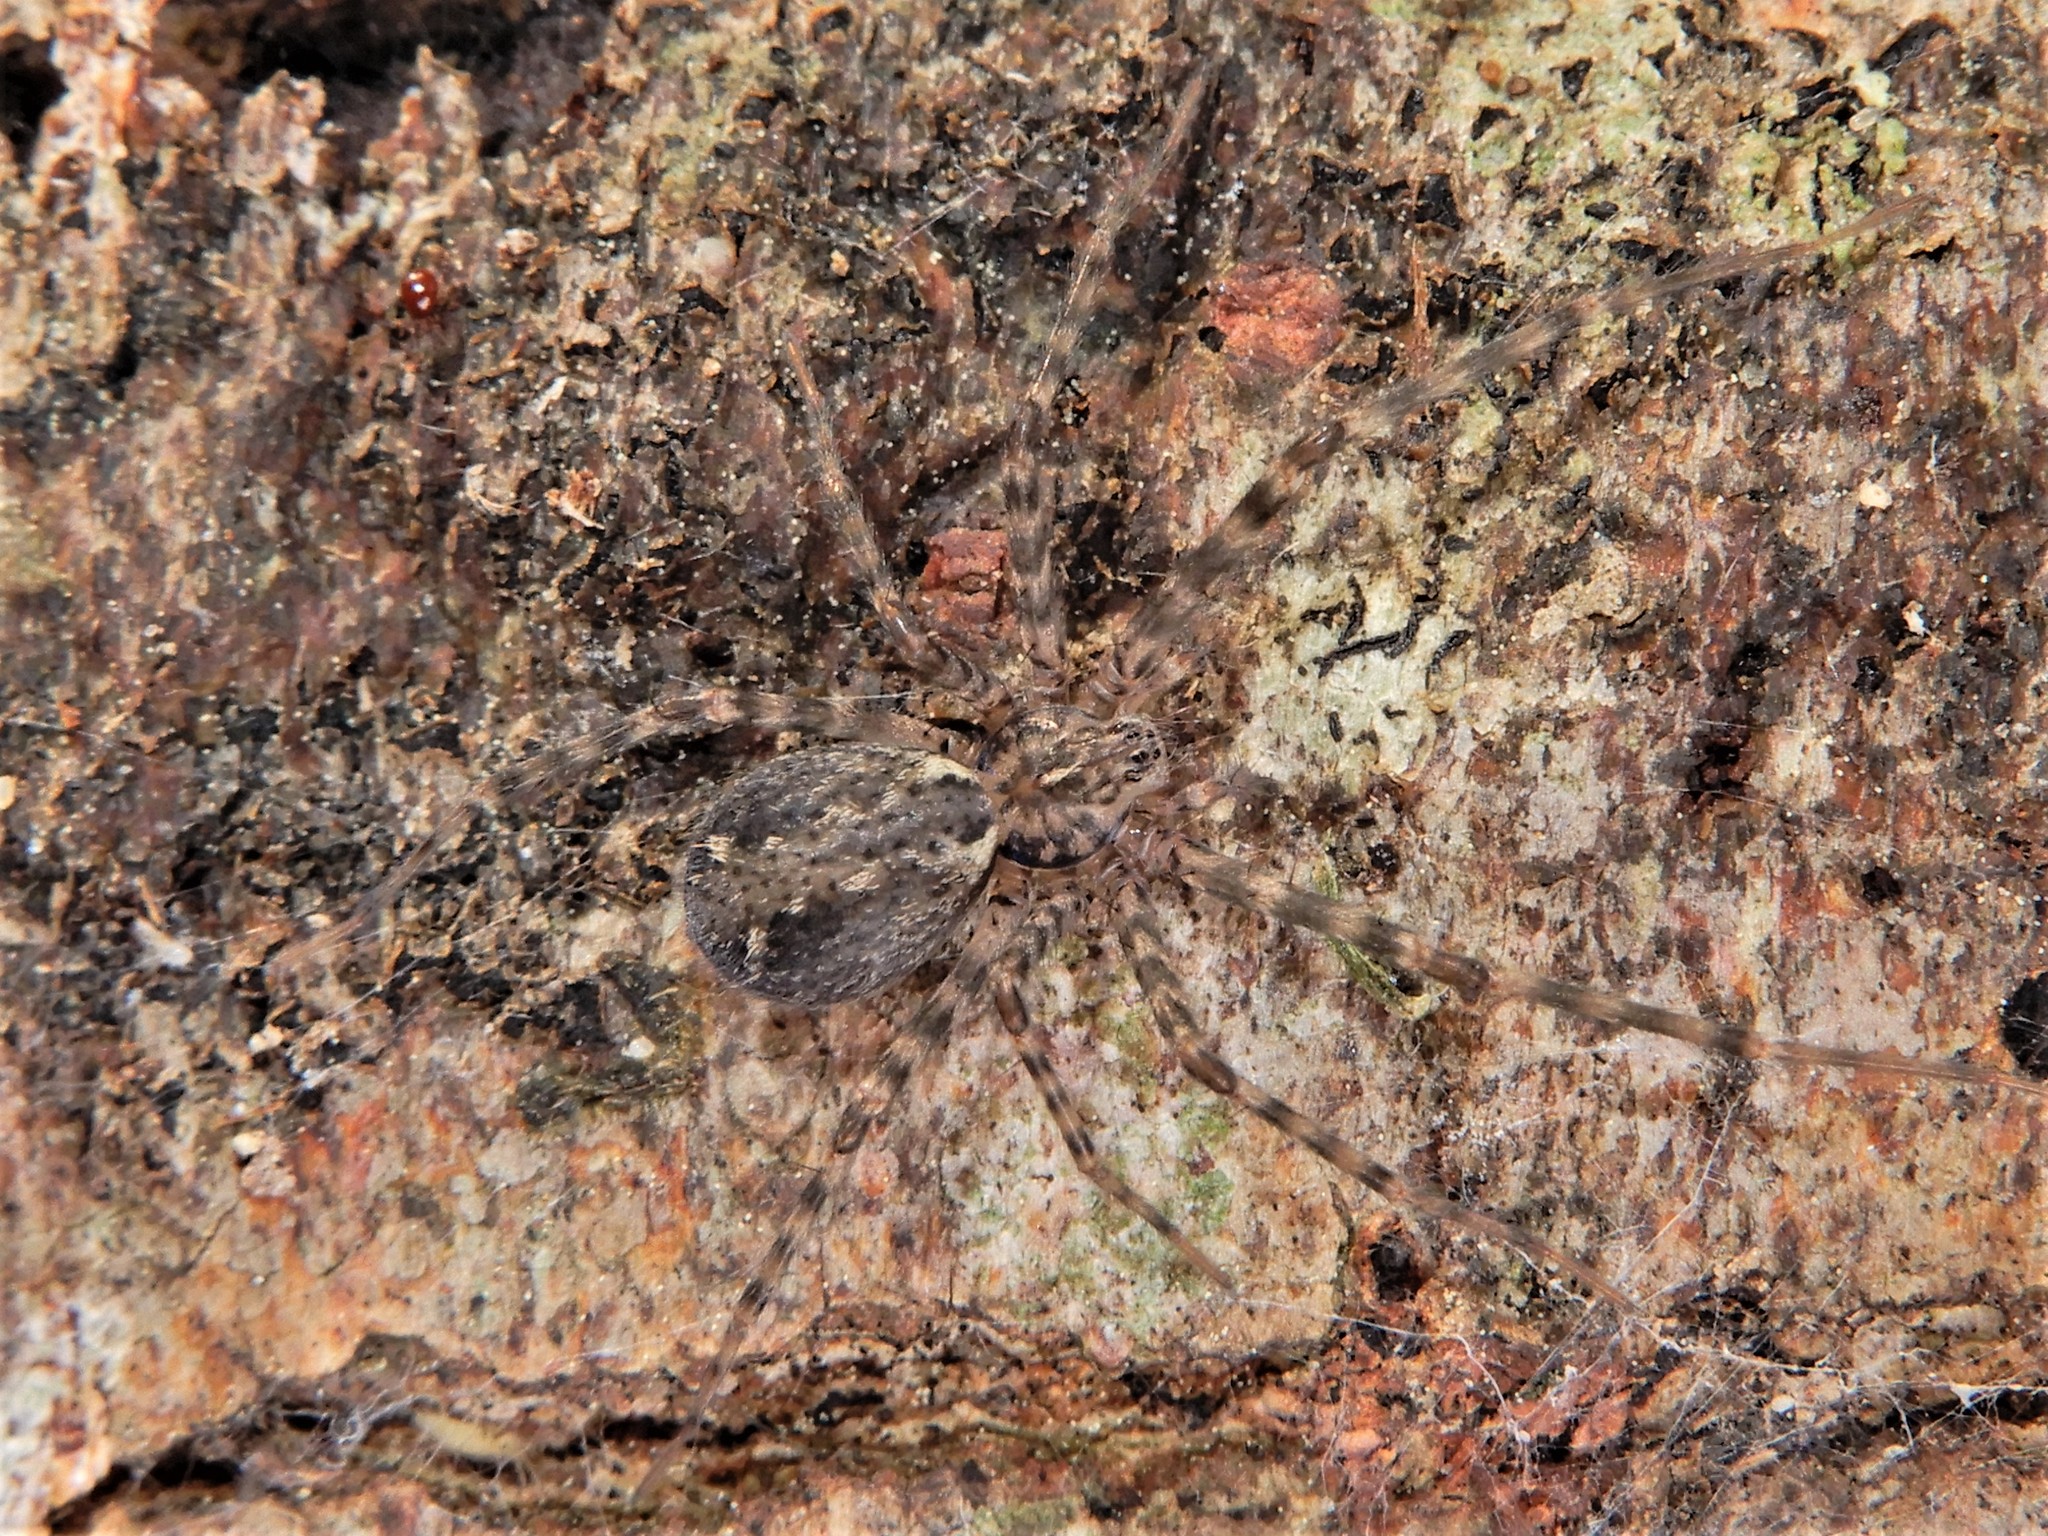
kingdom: Animalia
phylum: Arthropoda
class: Arachnida
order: Araneae
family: Stiphidiidae
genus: Stiphidion
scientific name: Stiphidion facetum
